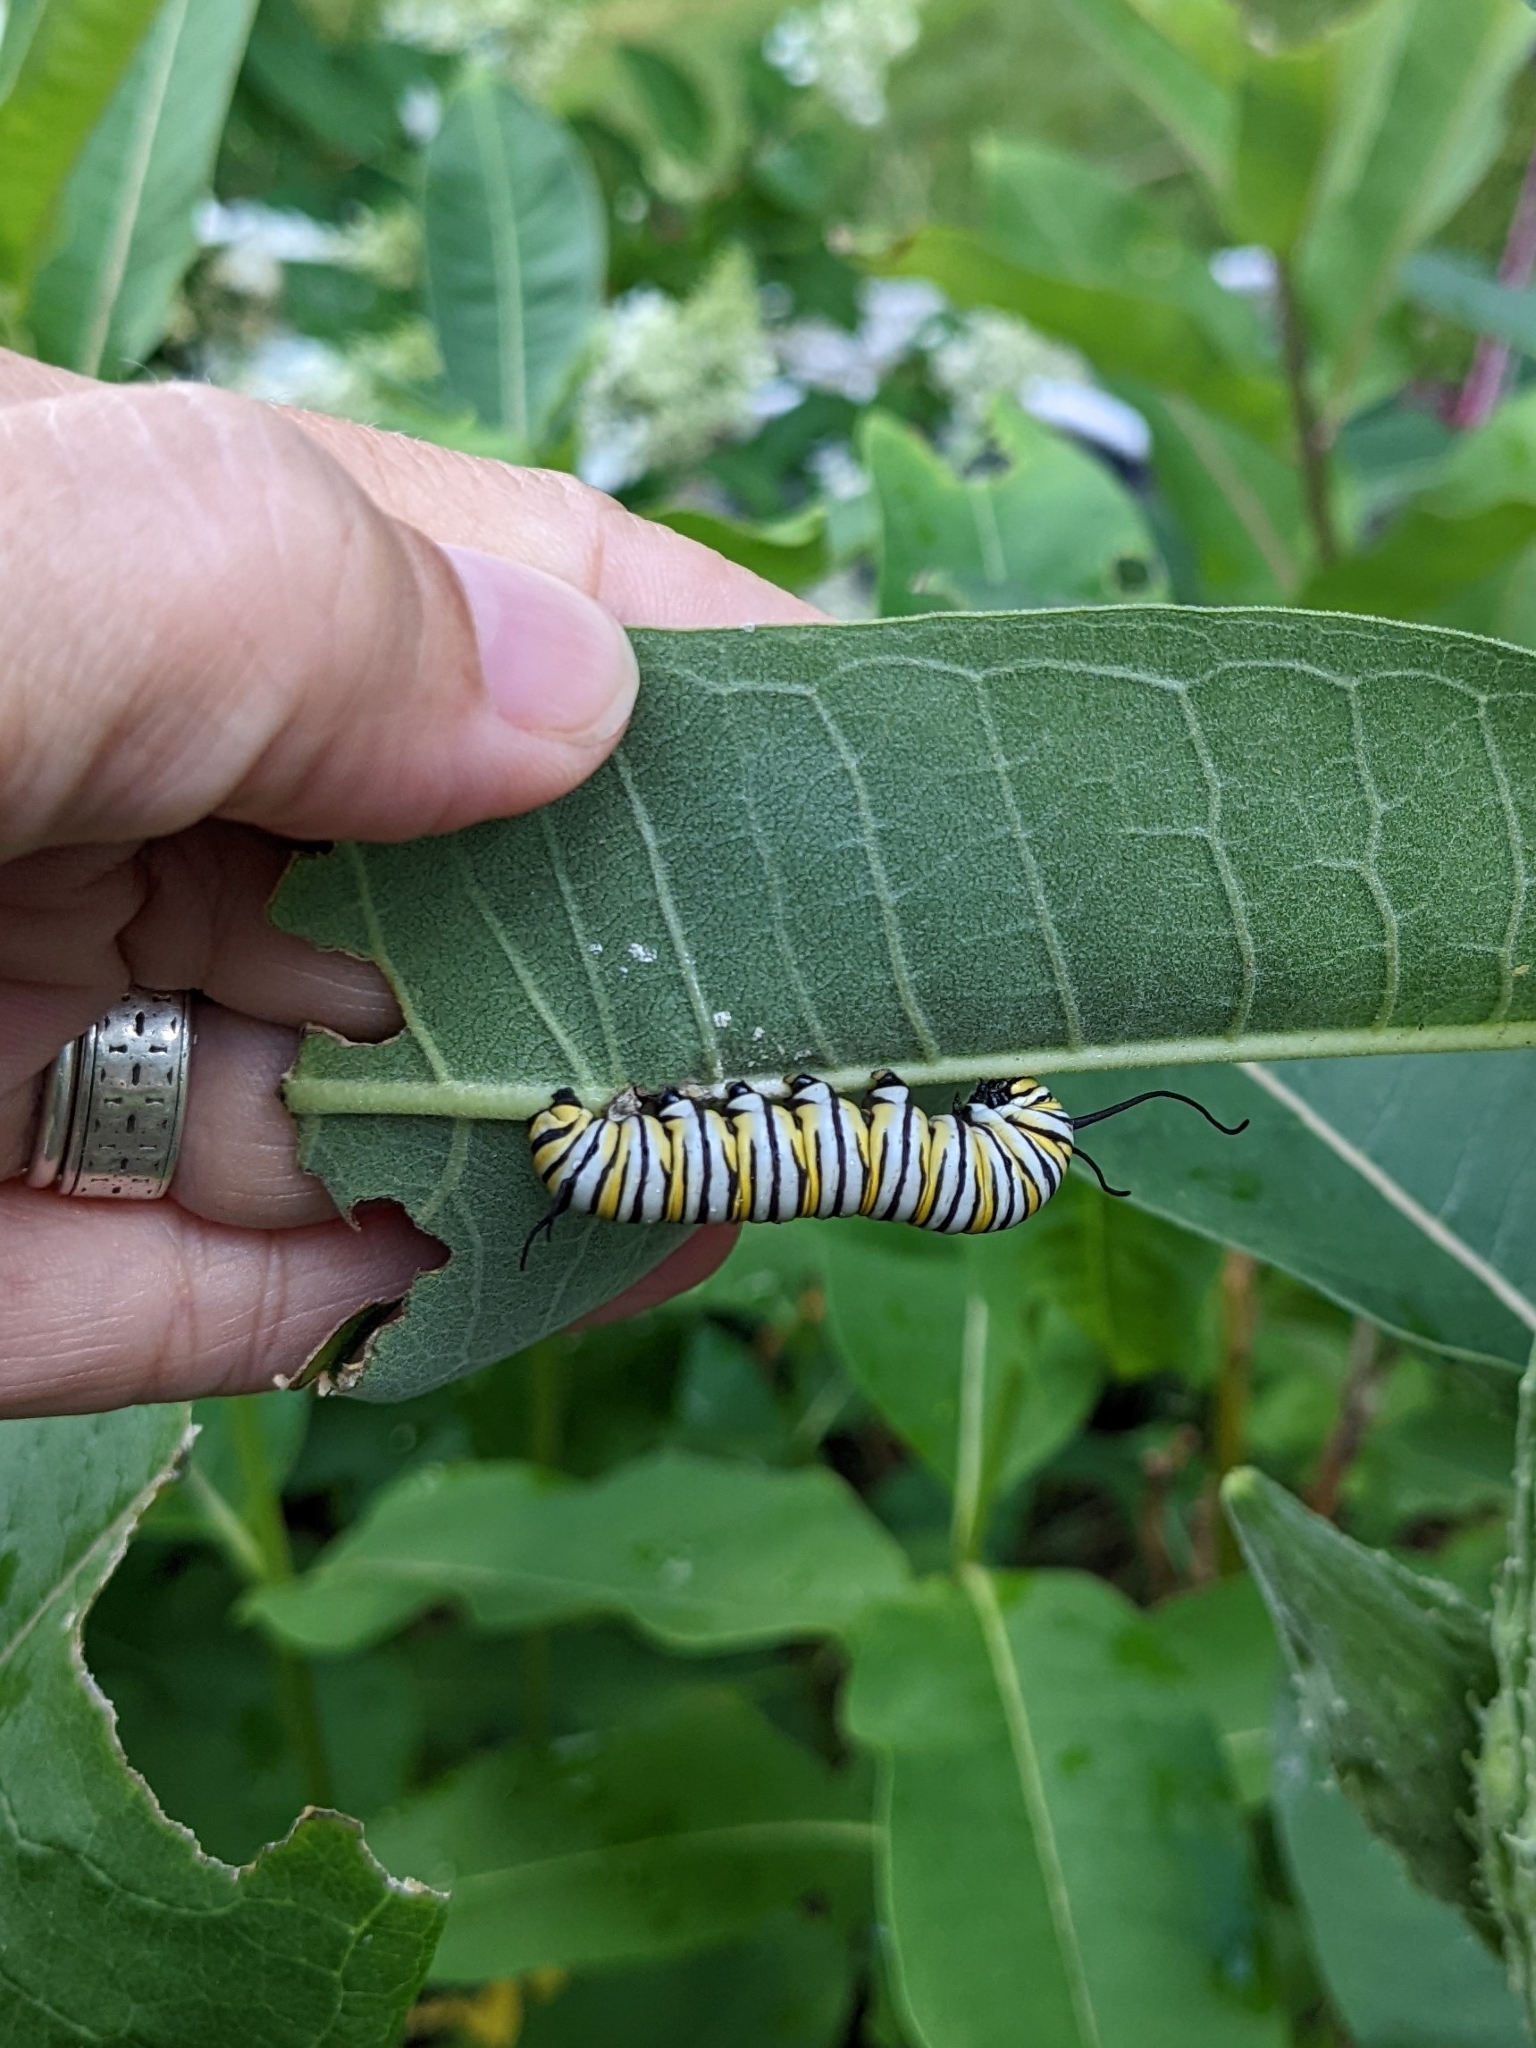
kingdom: Animalia
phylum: Arthropoda
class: Insecta
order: Lepidoptera
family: Nymphalidae
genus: Danaus
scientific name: Danaus plexippus
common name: Monarch
